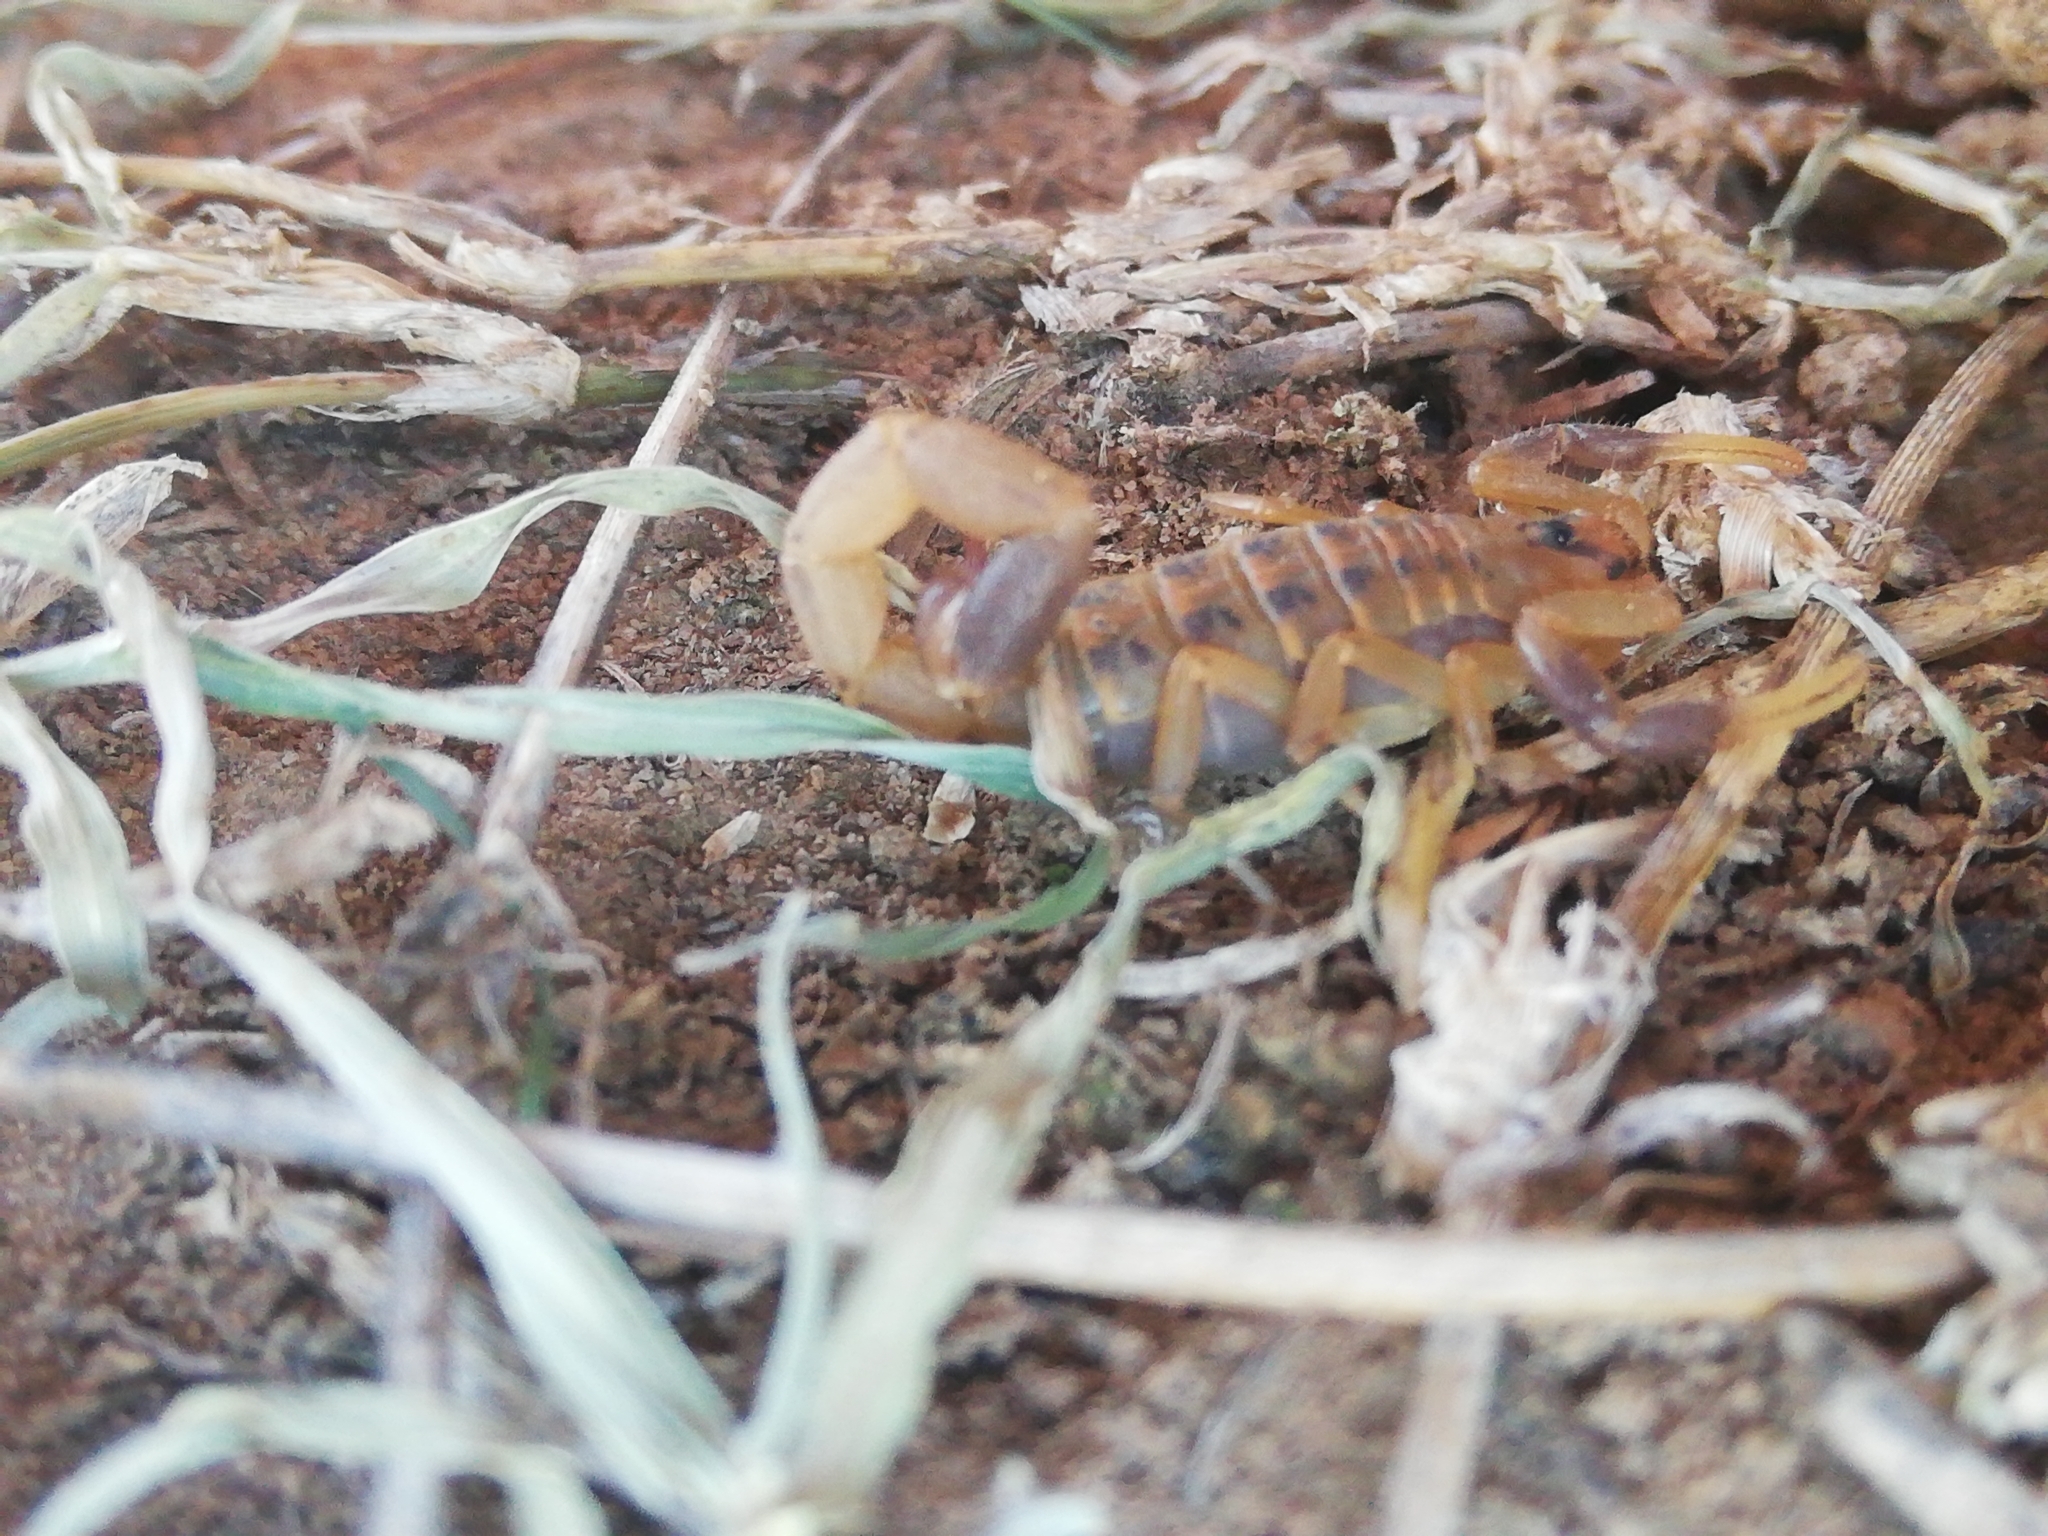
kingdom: Animalia
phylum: Arthropoda
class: Arachnida
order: Scorpiones
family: Buthidae
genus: Uroplectes
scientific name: Uroplectes triangulifer
